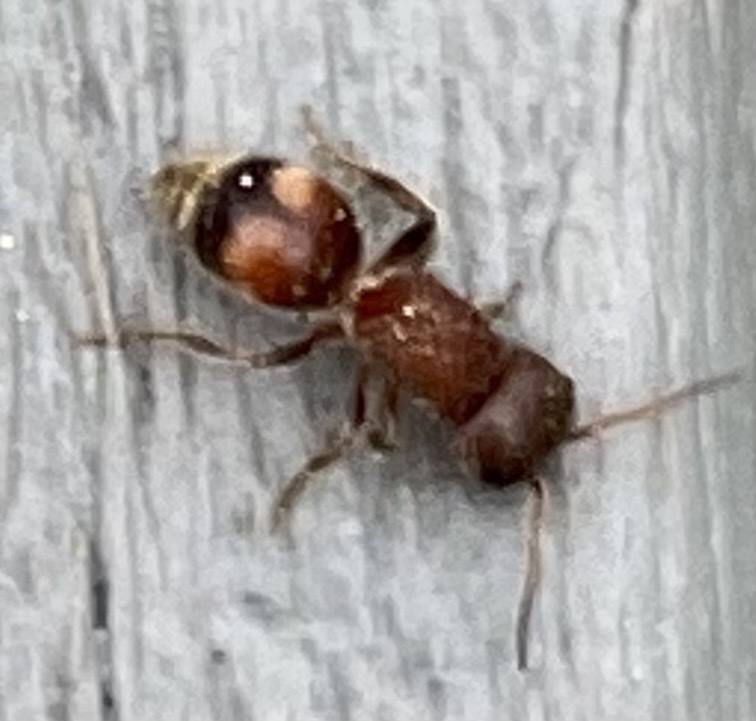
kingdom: Animalia
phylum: Arthropoda
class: Insecta
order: Hymenoptera
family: Mutillidae
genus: Pseudomethoca
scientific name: Pseudomethoca
